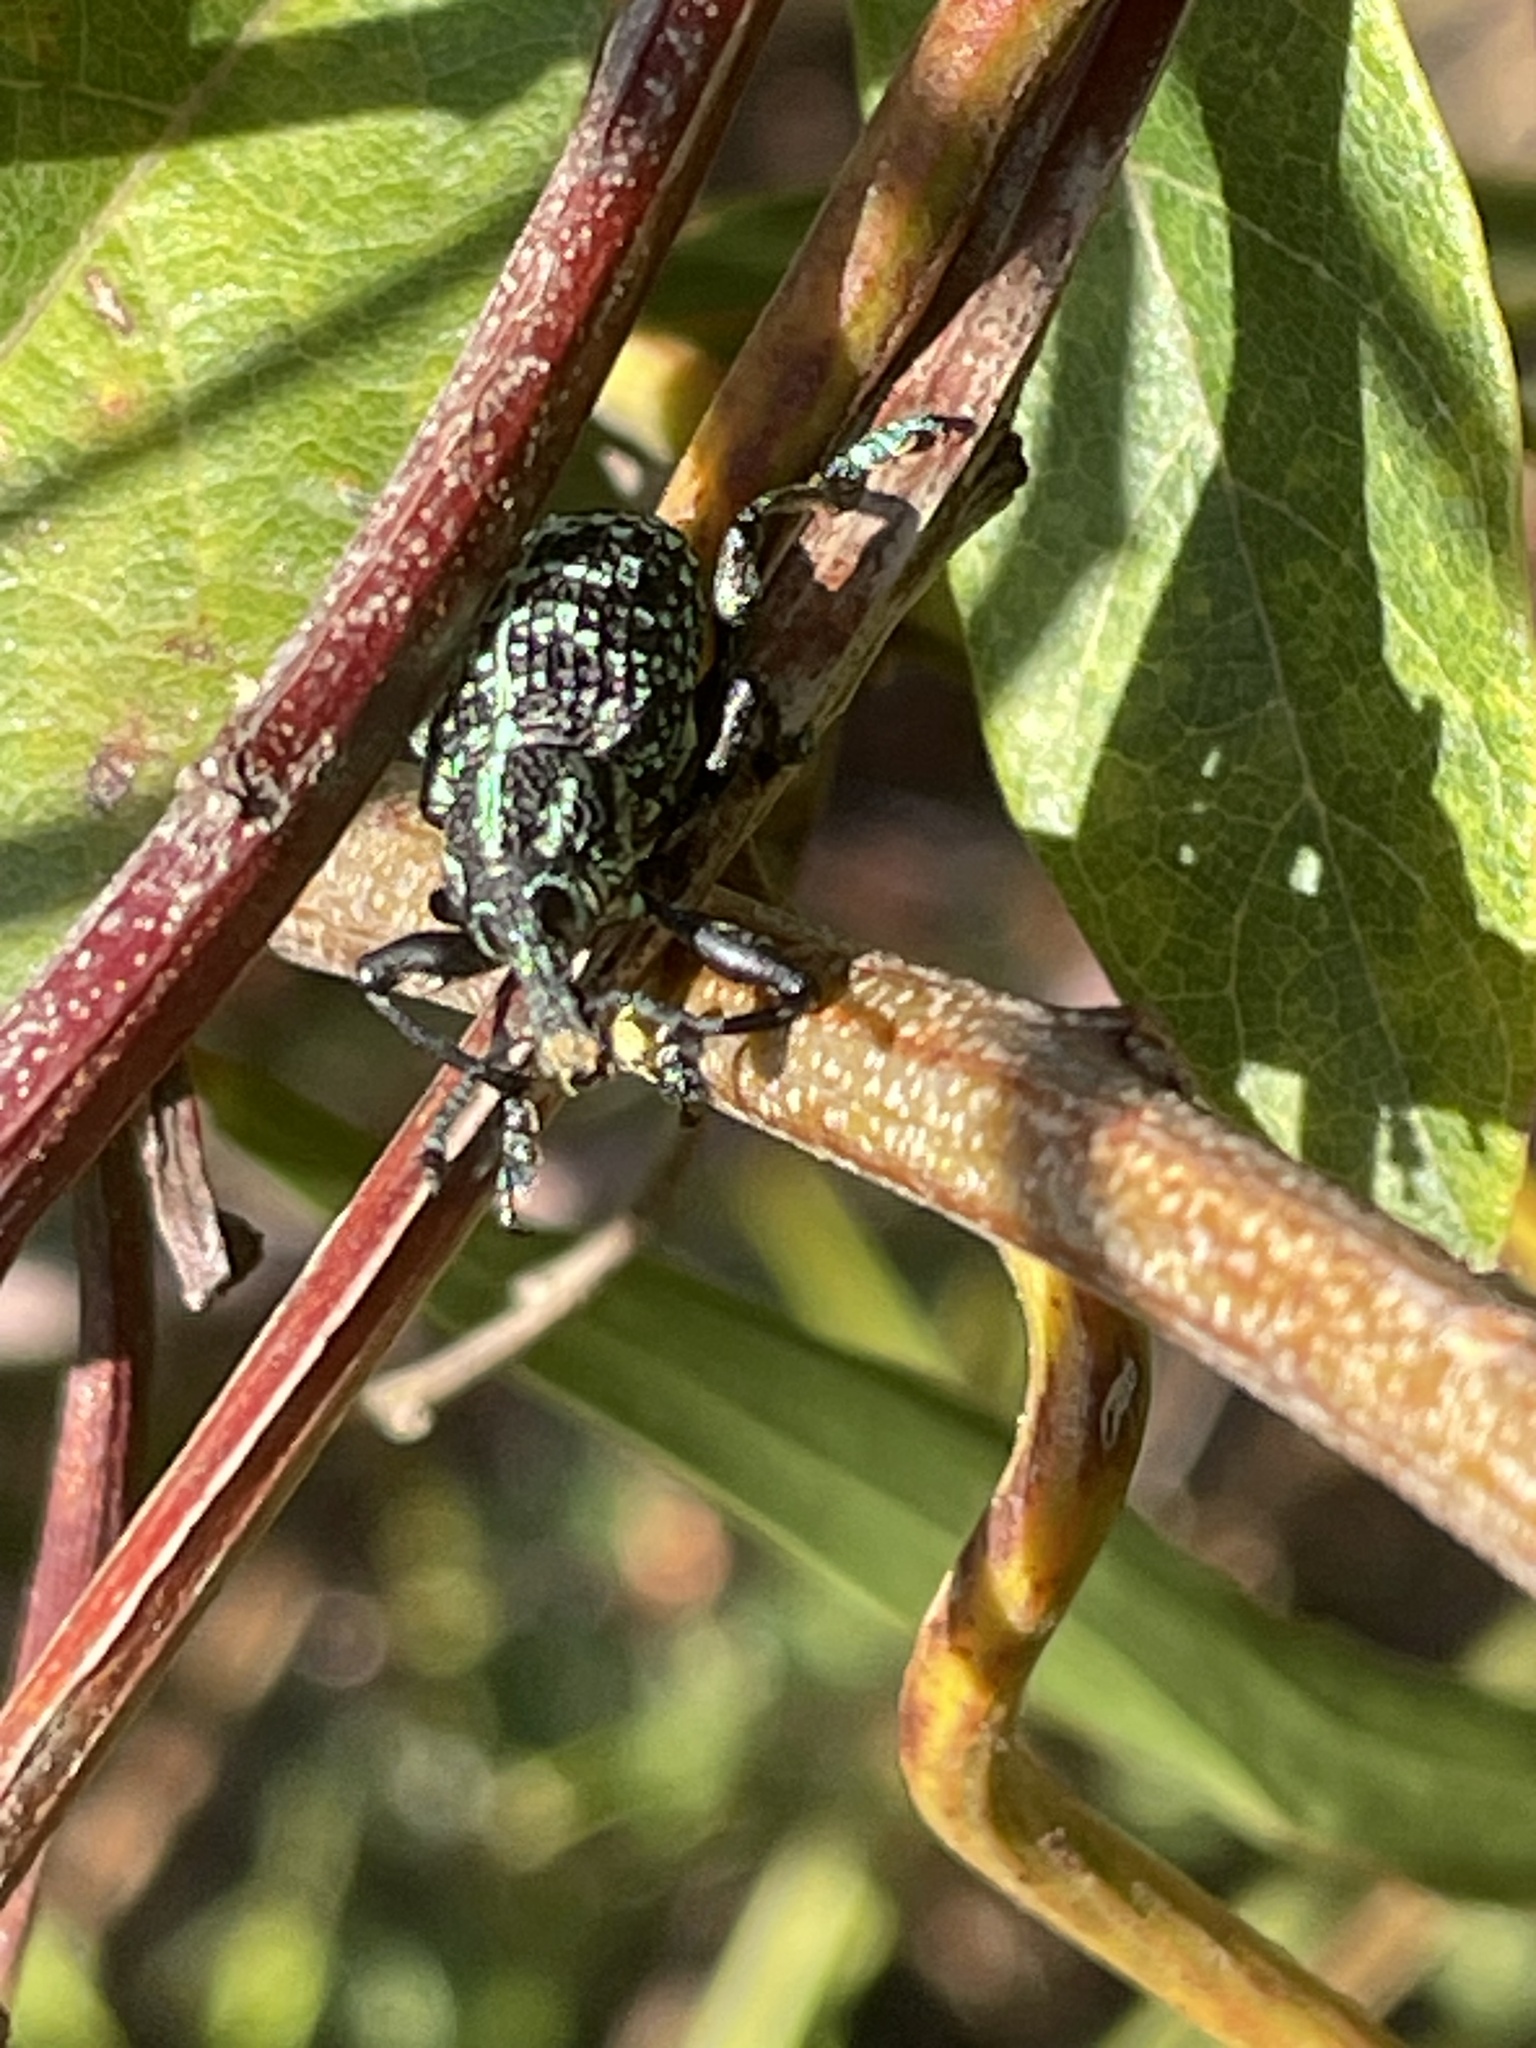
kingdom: Animalia
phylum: Arthropoda
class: Insecta
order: Coleoptera
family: Curculionidae
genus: Chrysolopus
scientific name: Chrysolopus spectabilis
